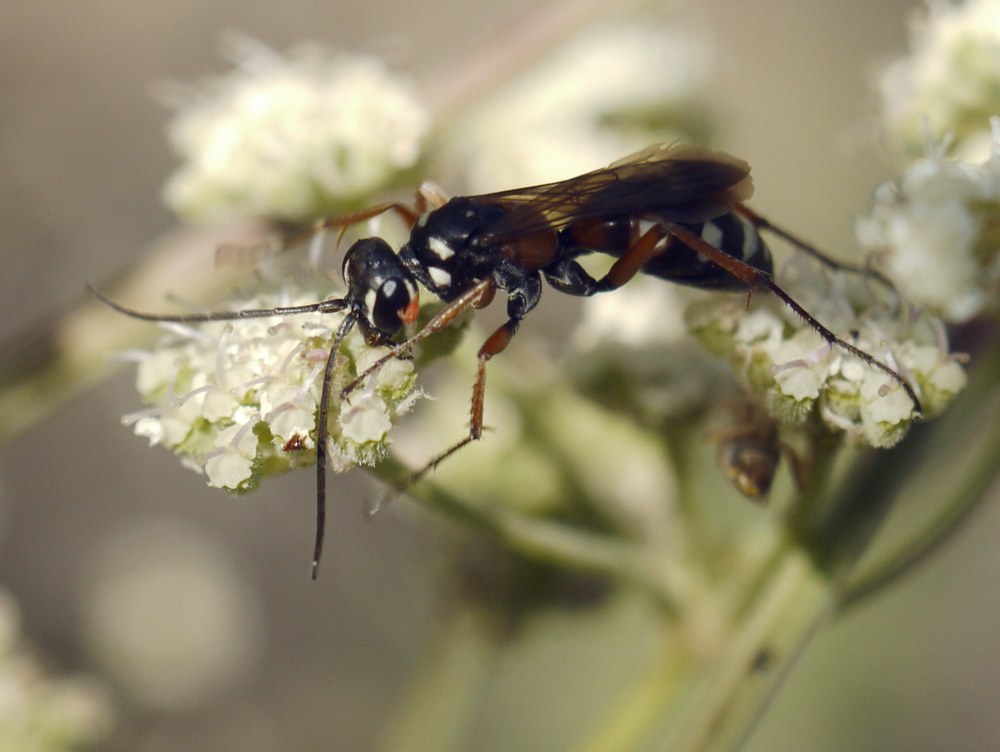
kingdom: Animalia
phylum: Arthropoda
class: Insecta
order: Hymenoptera
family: Pompilidae
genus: Cryptocheilus
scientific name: Cryptocheilus fabricii
